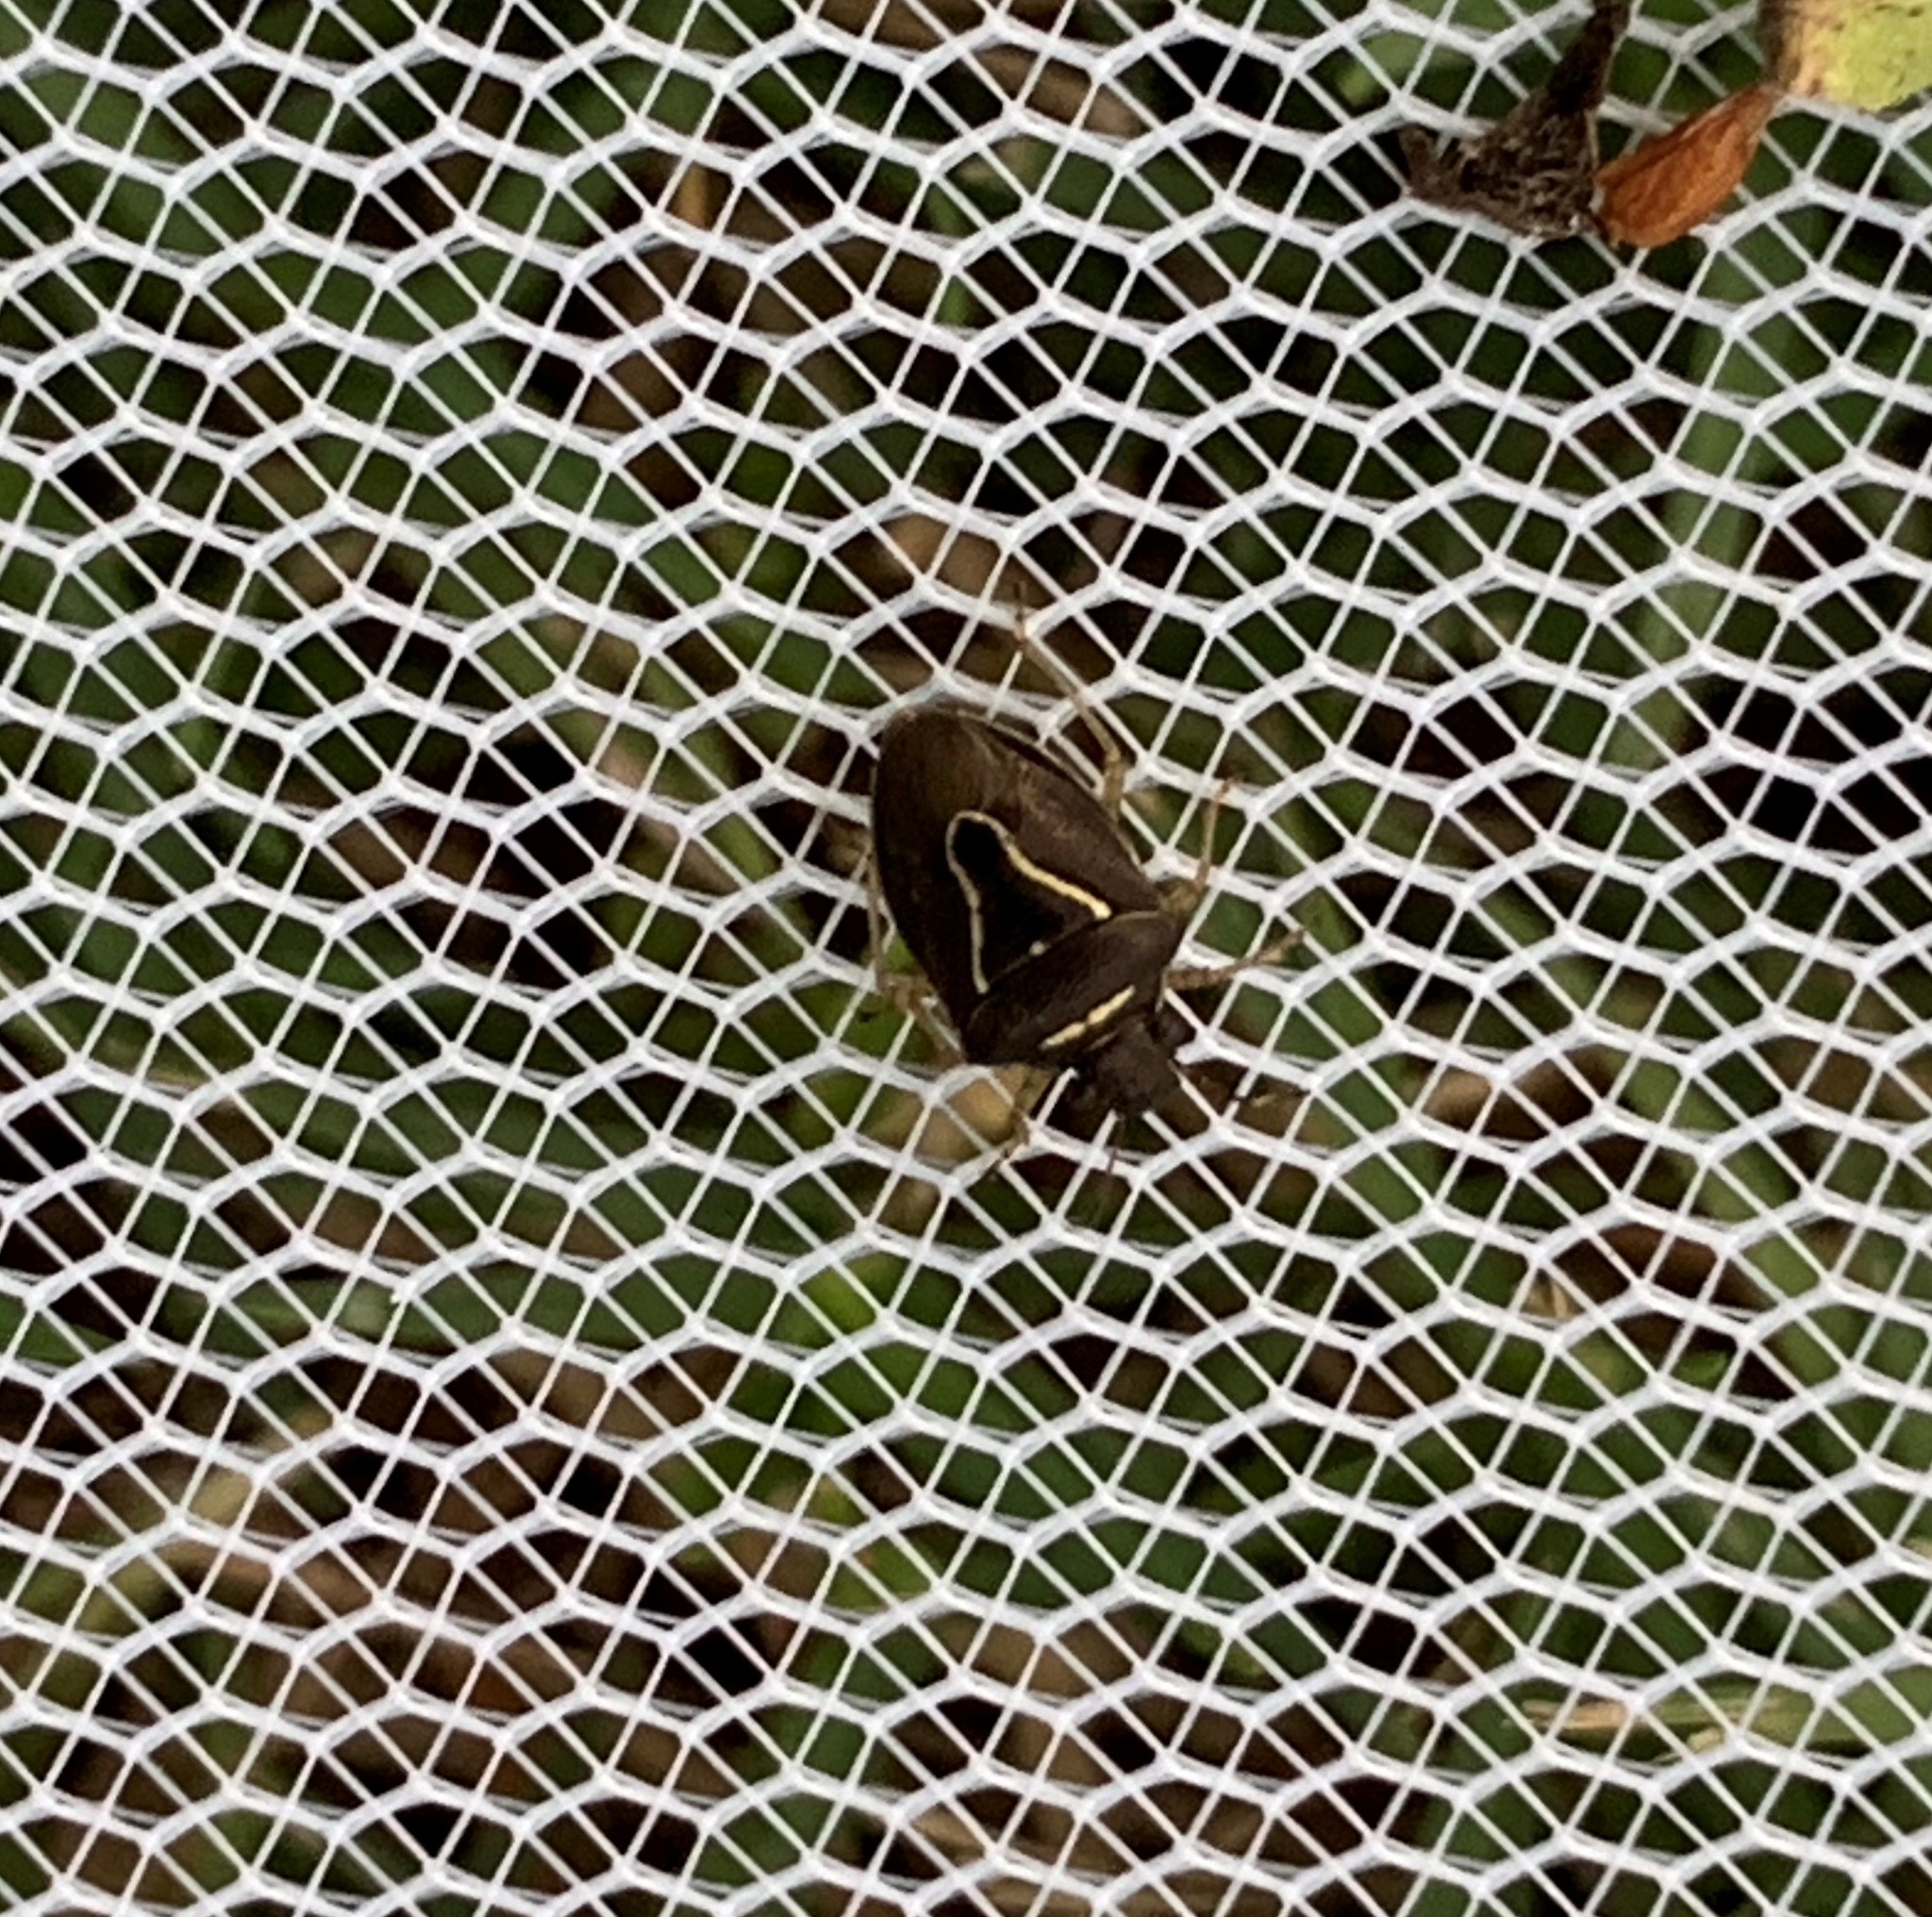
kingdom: Animalia
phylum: Arthropoda
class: Insecta
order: Hemiptera
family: Pentatomidae
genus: Mormidea
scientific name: Mormidea lugens
